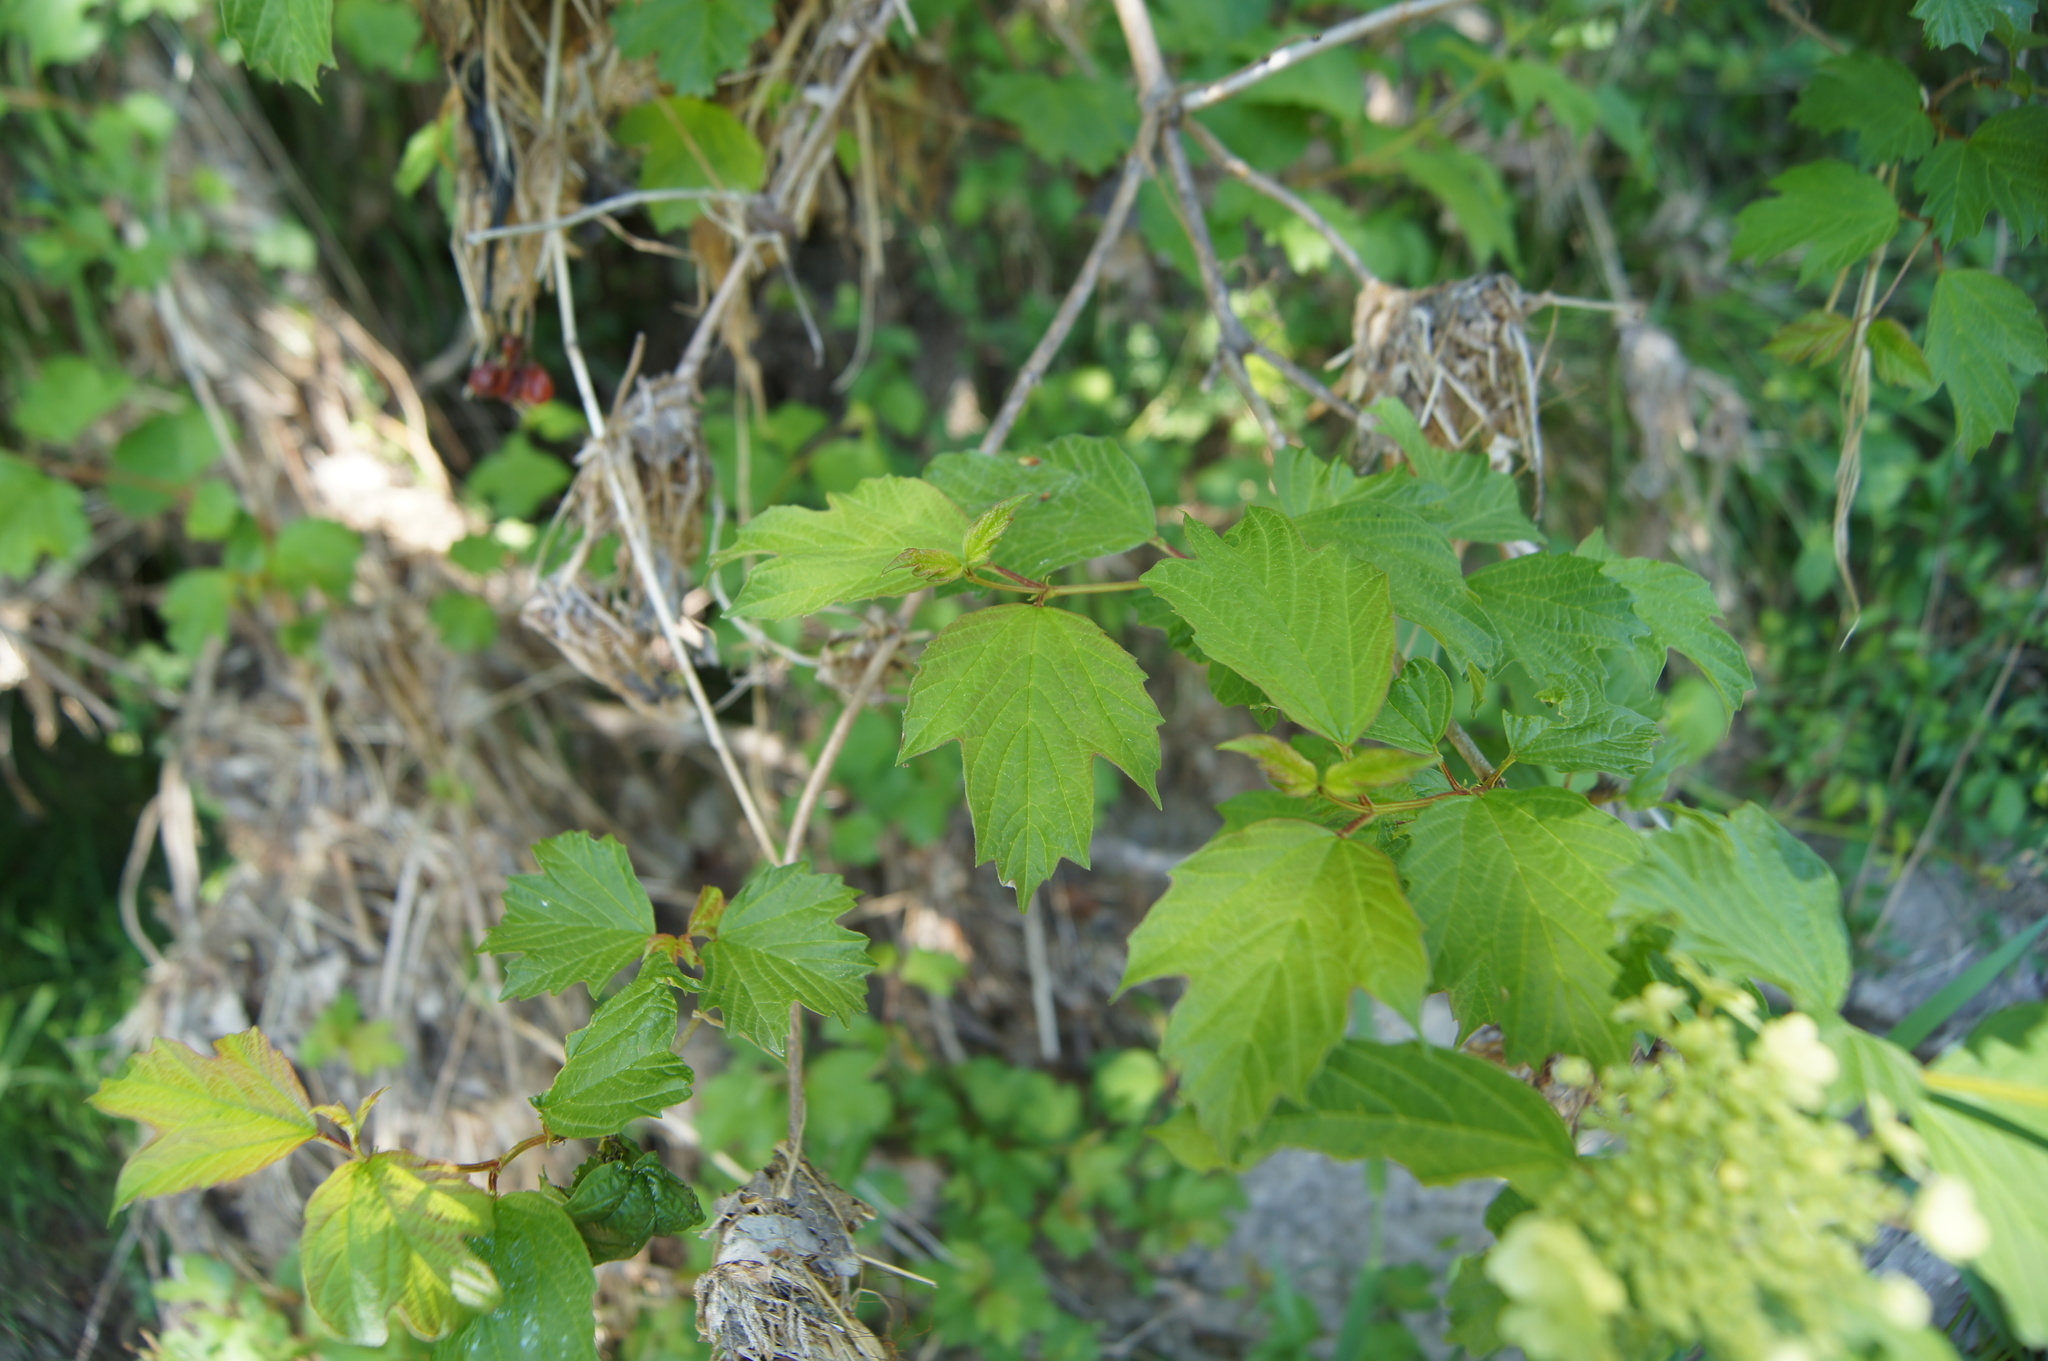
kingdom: Plantae
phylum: Tracheophyta
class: Magnoliopsida
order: Dipsacales
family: Viburnaceae
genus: Viburnum
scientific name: Viburnum opulus
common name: Guelder-rose
